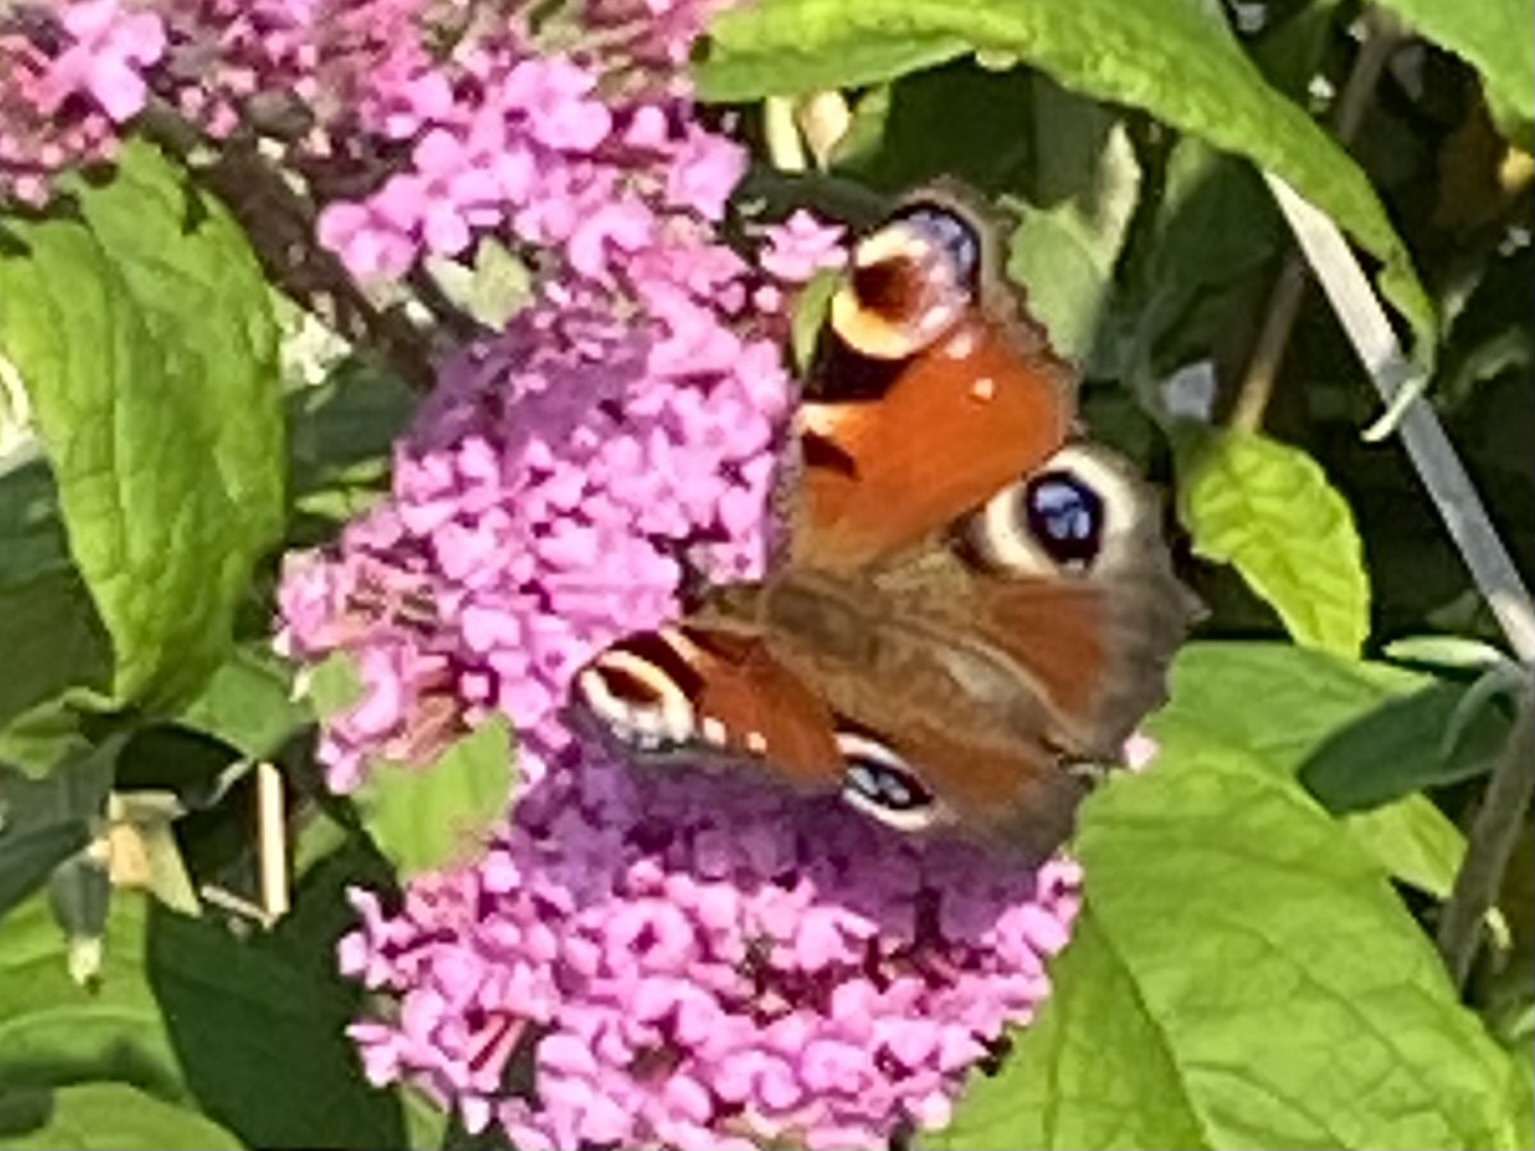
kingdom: Animalia
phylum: Arthropoda
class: Insecta
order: Lepidoptera
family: Nymphalidae
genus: Aglais
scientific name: Aglais io
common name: Peacock
